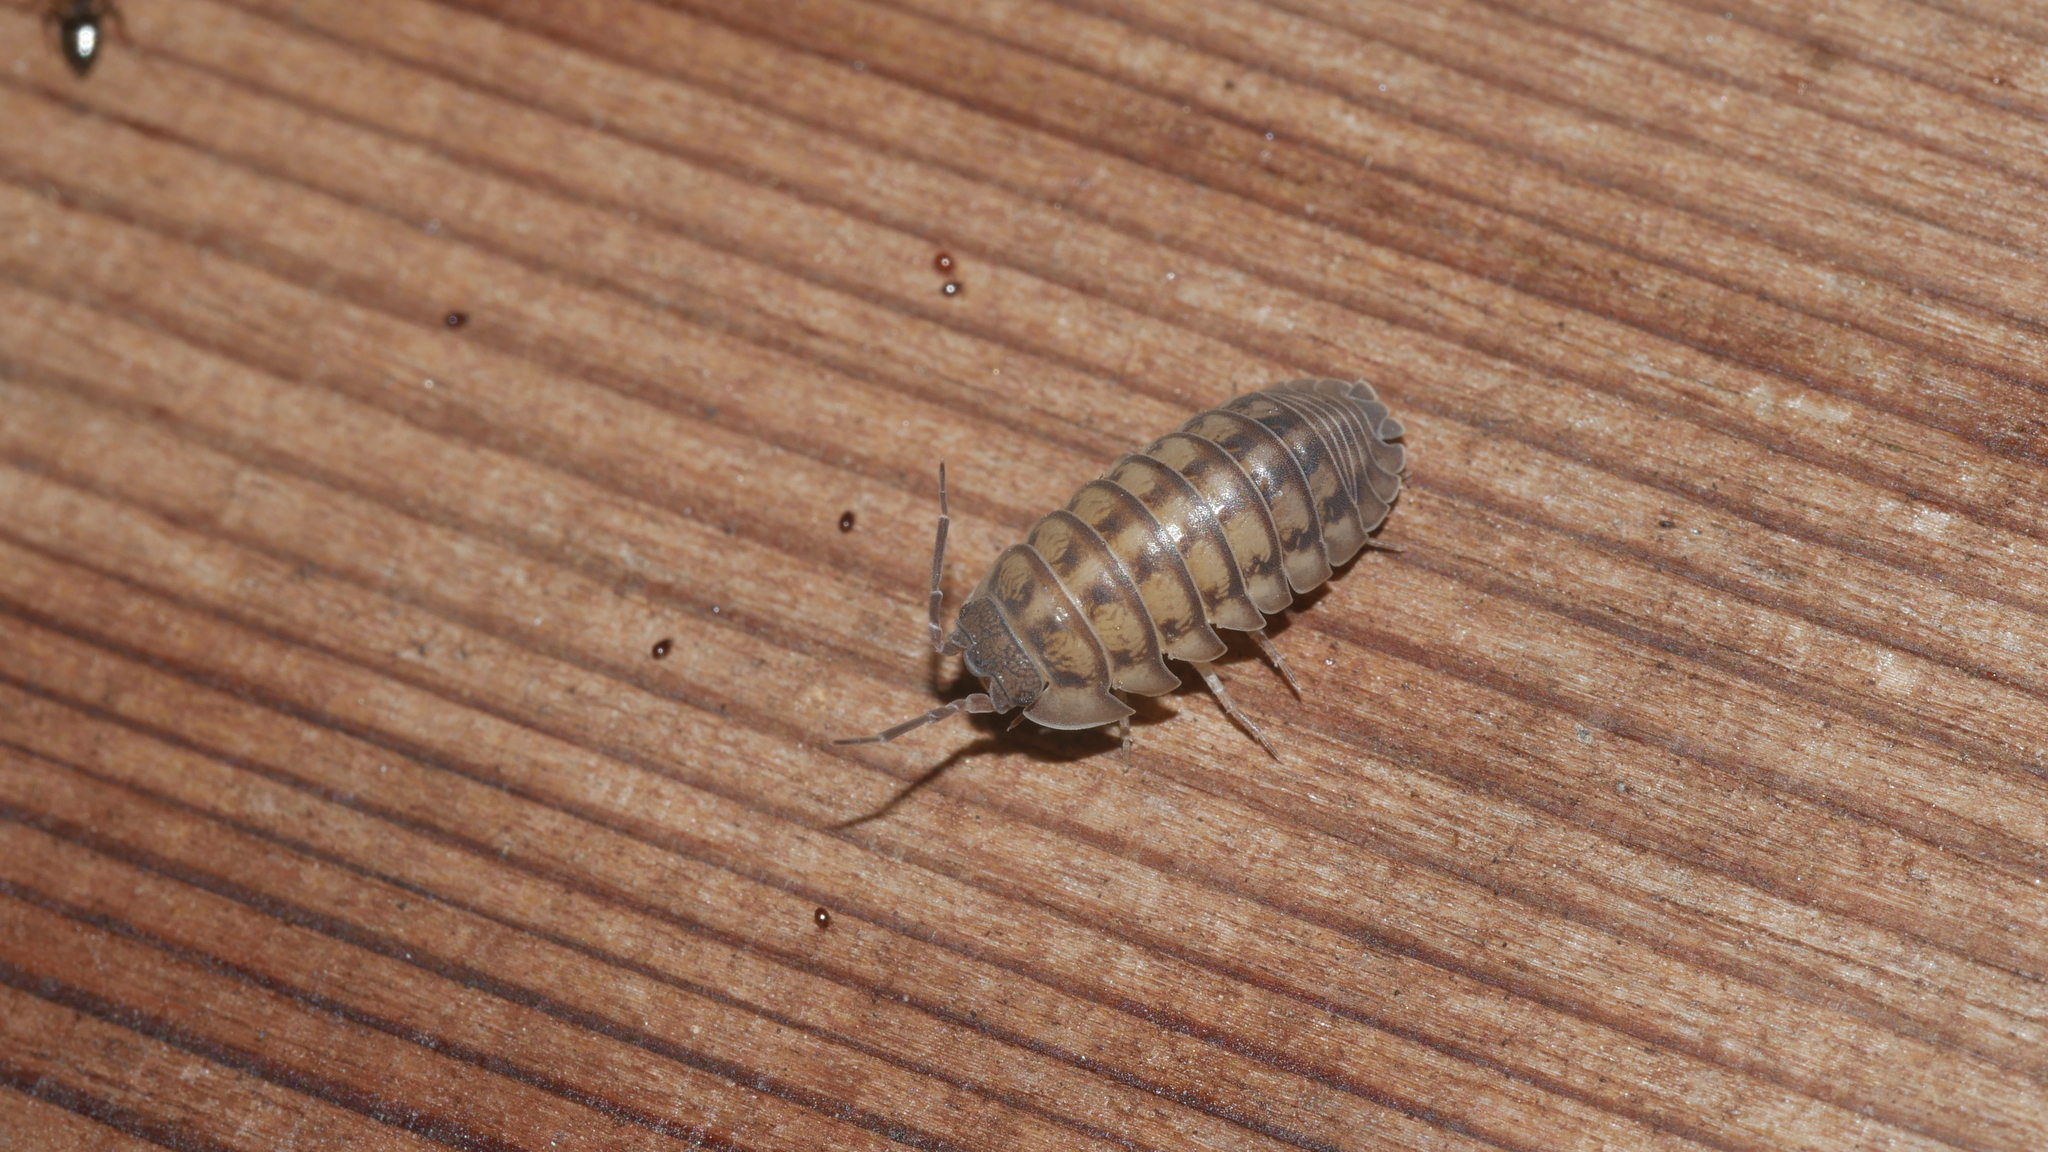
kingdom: Animalia
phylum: Arthropoda
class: Malacostraca
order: Isopoda
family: Armadillidiidae
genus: Armadillidium
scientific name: Armadillidium nasatum
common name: Isopod
